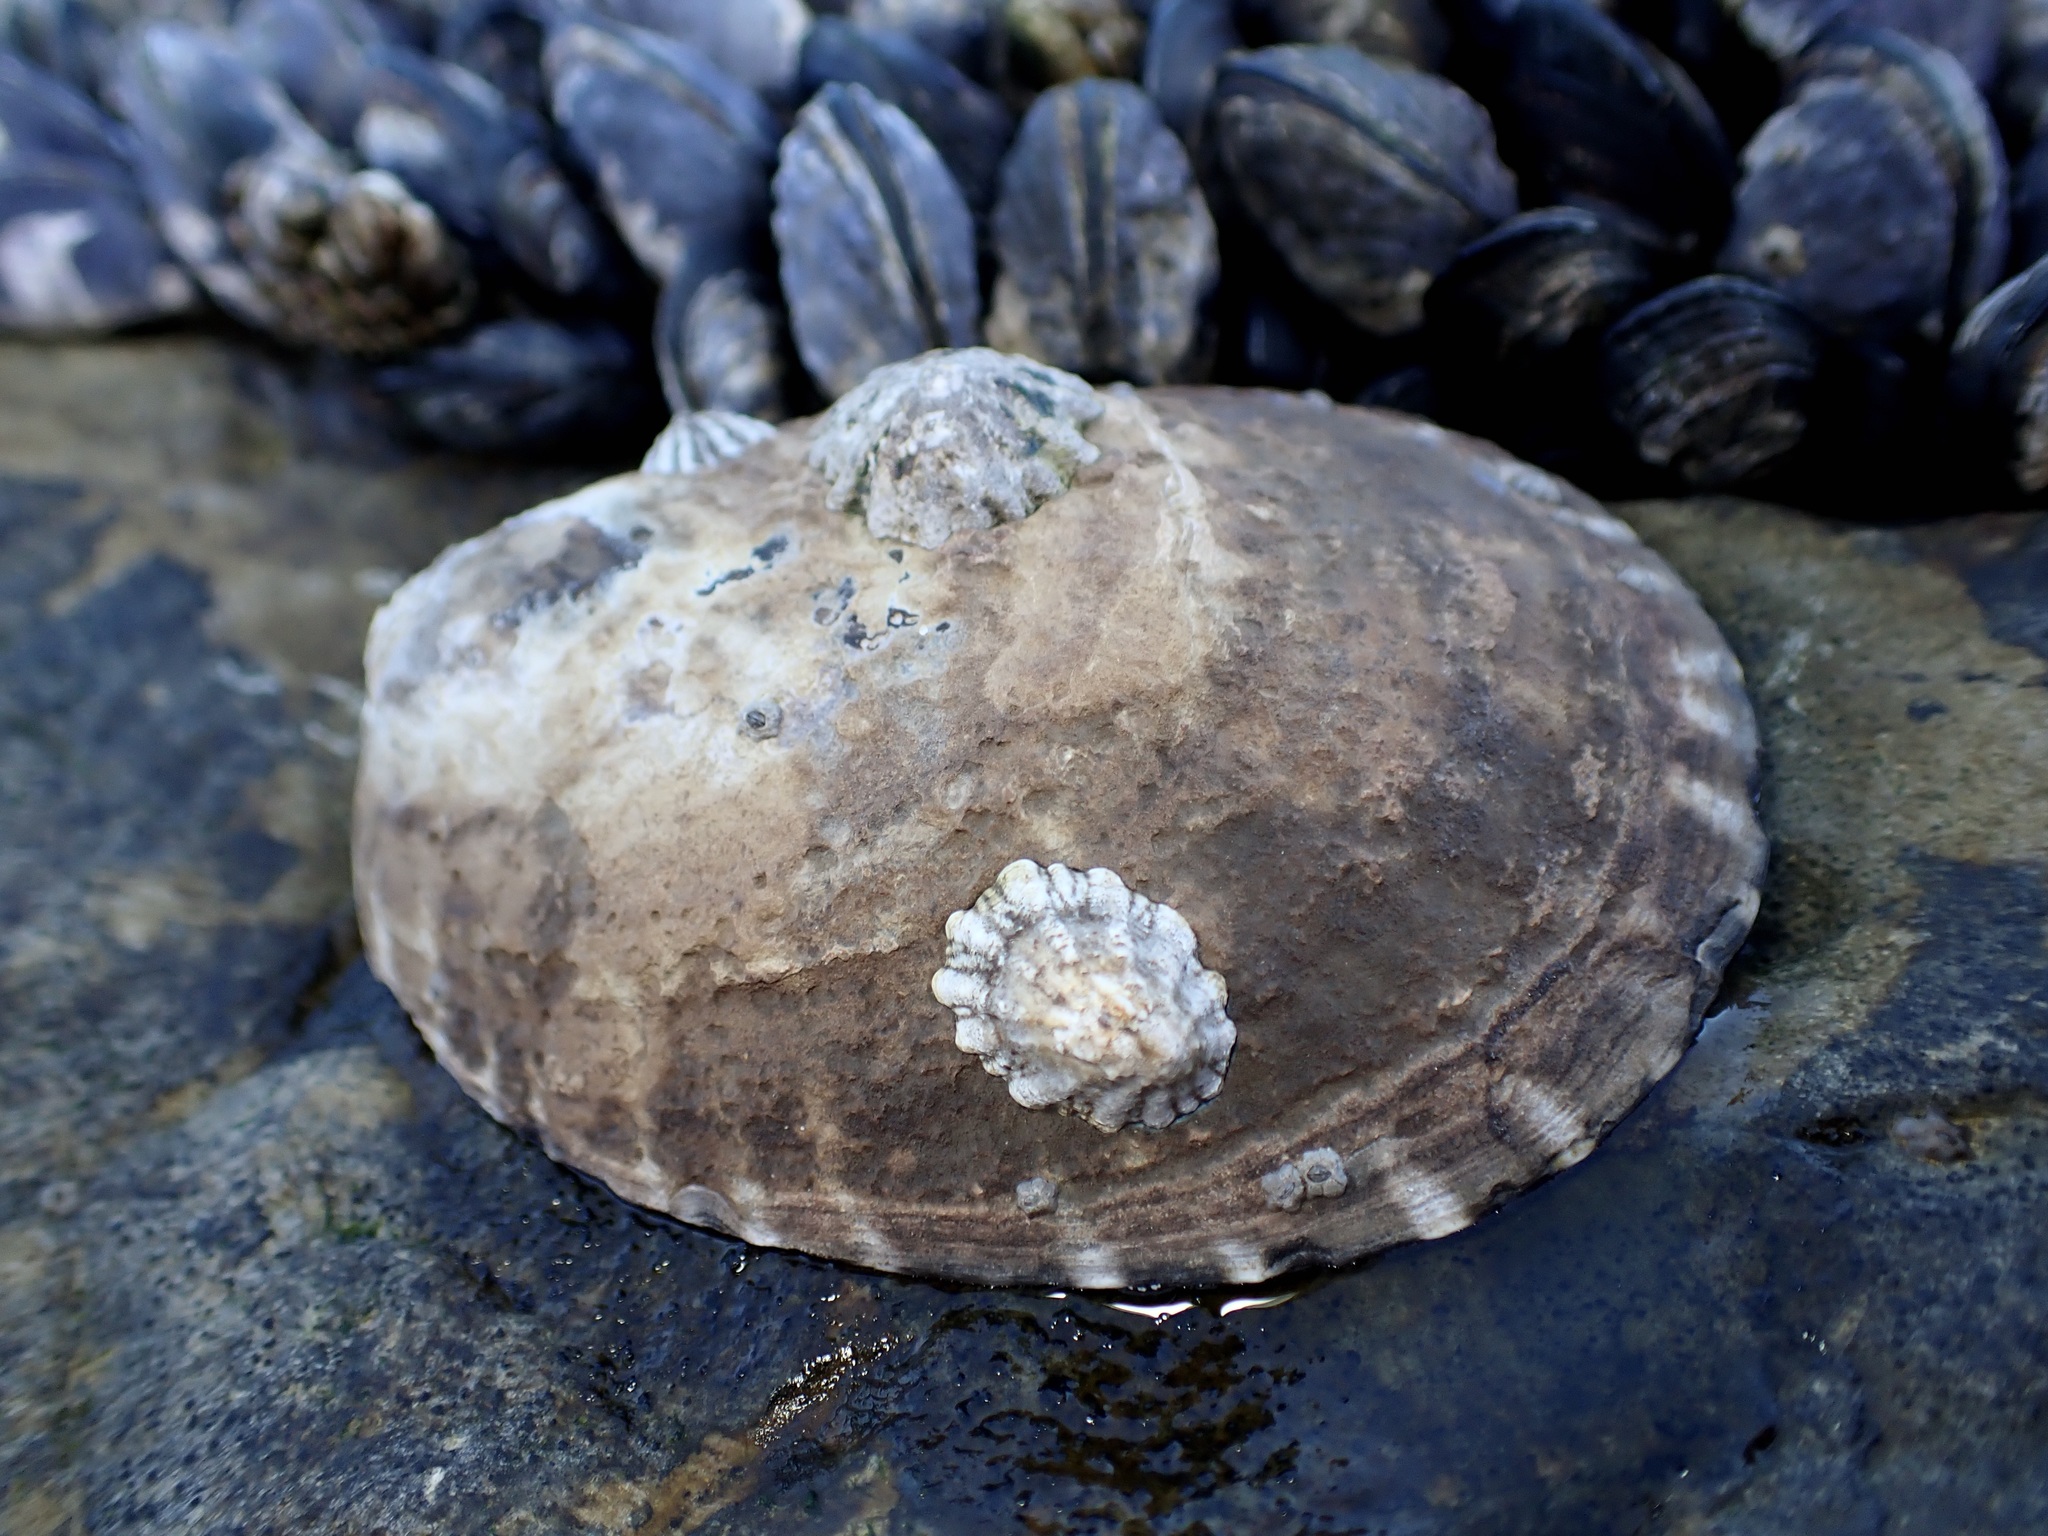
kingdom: Animalia
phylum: Mollusca
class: Gastropoda
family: Lottiidae
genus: Lottia
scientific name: Lottia gigantea
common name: Owl limpet
